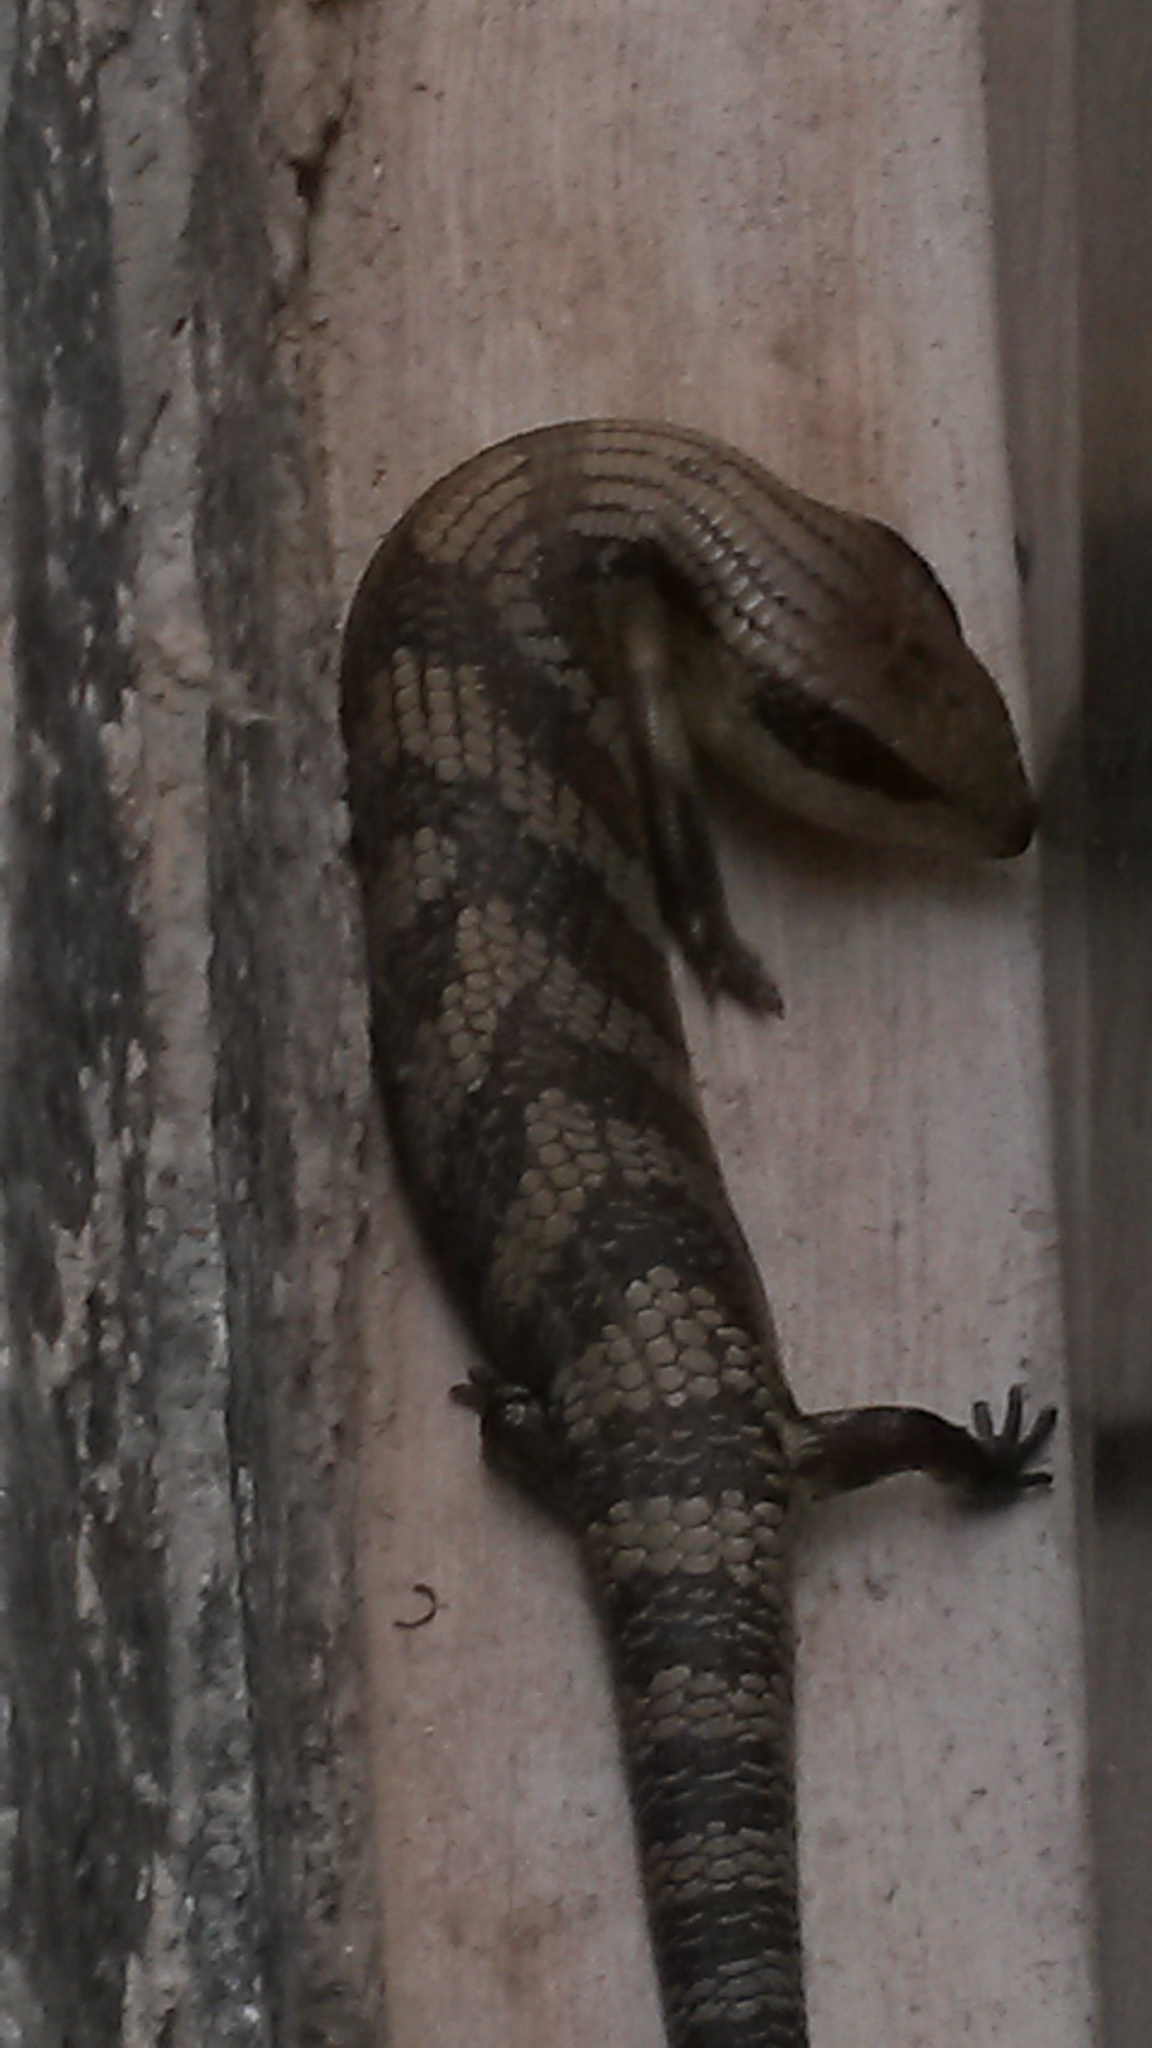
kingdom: Animalia
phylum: Chordata
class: Squamata
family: Scincidae
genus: Tiliqua
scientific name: Tiliqua scincoides
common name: Common bluetongue
